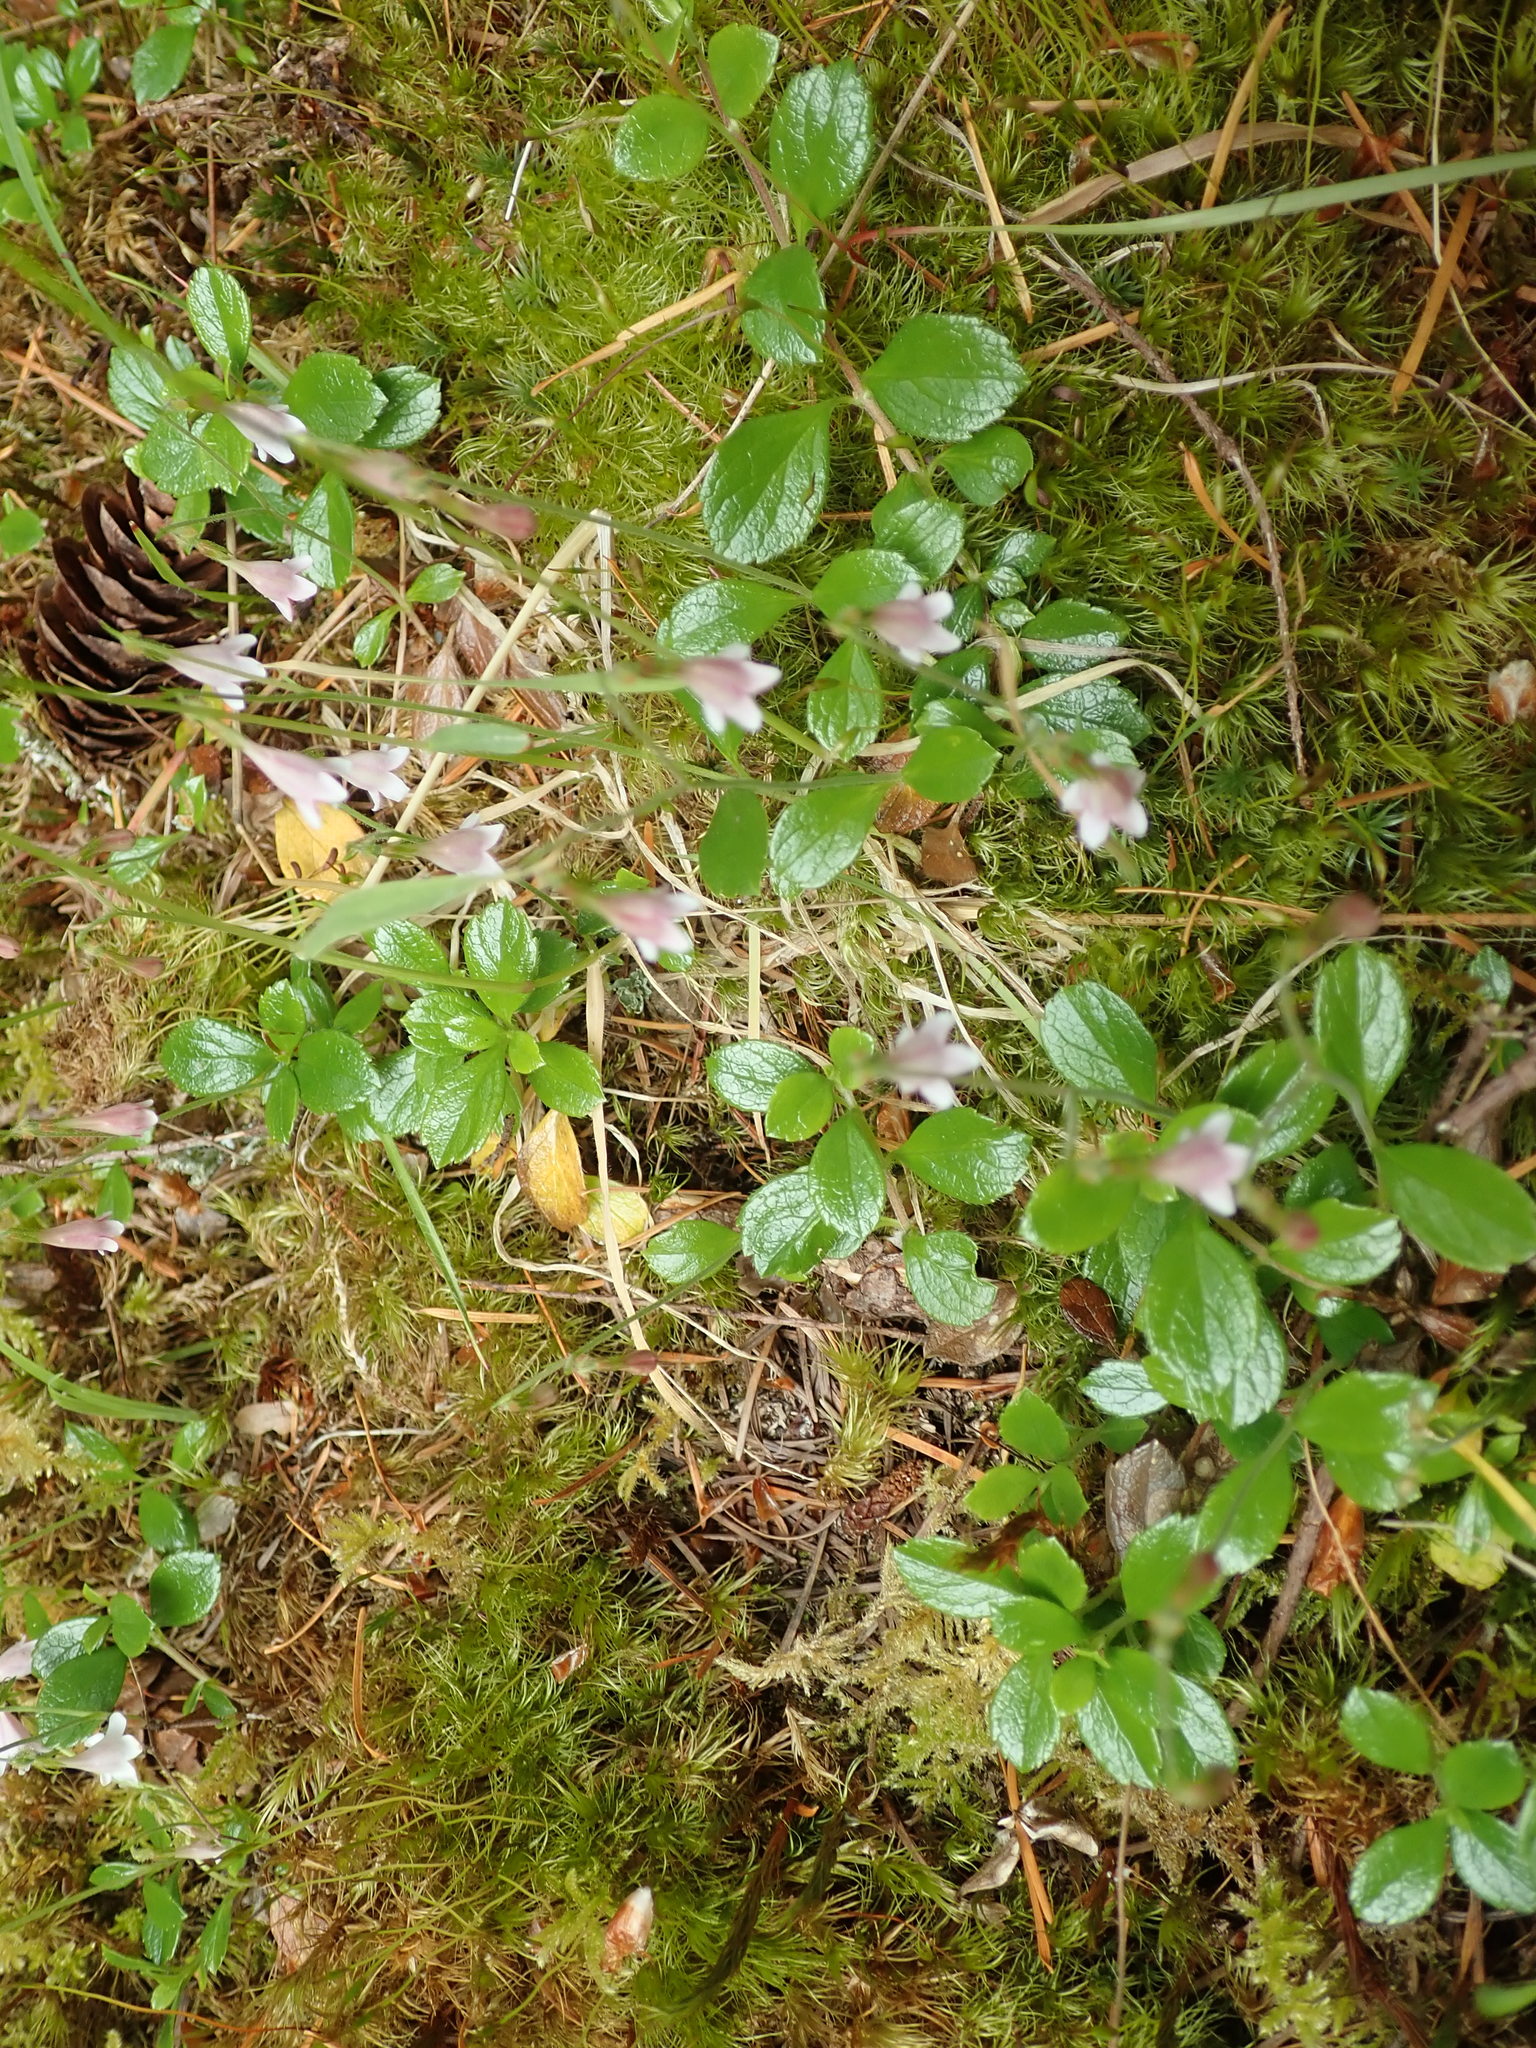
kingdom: Plantae
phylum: Tracheophyta
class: Magnoliopsida
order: Dipsacales
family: Caprifoliaceae
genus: Linnaea
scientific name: Linnaea borealis
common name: Twinflower
